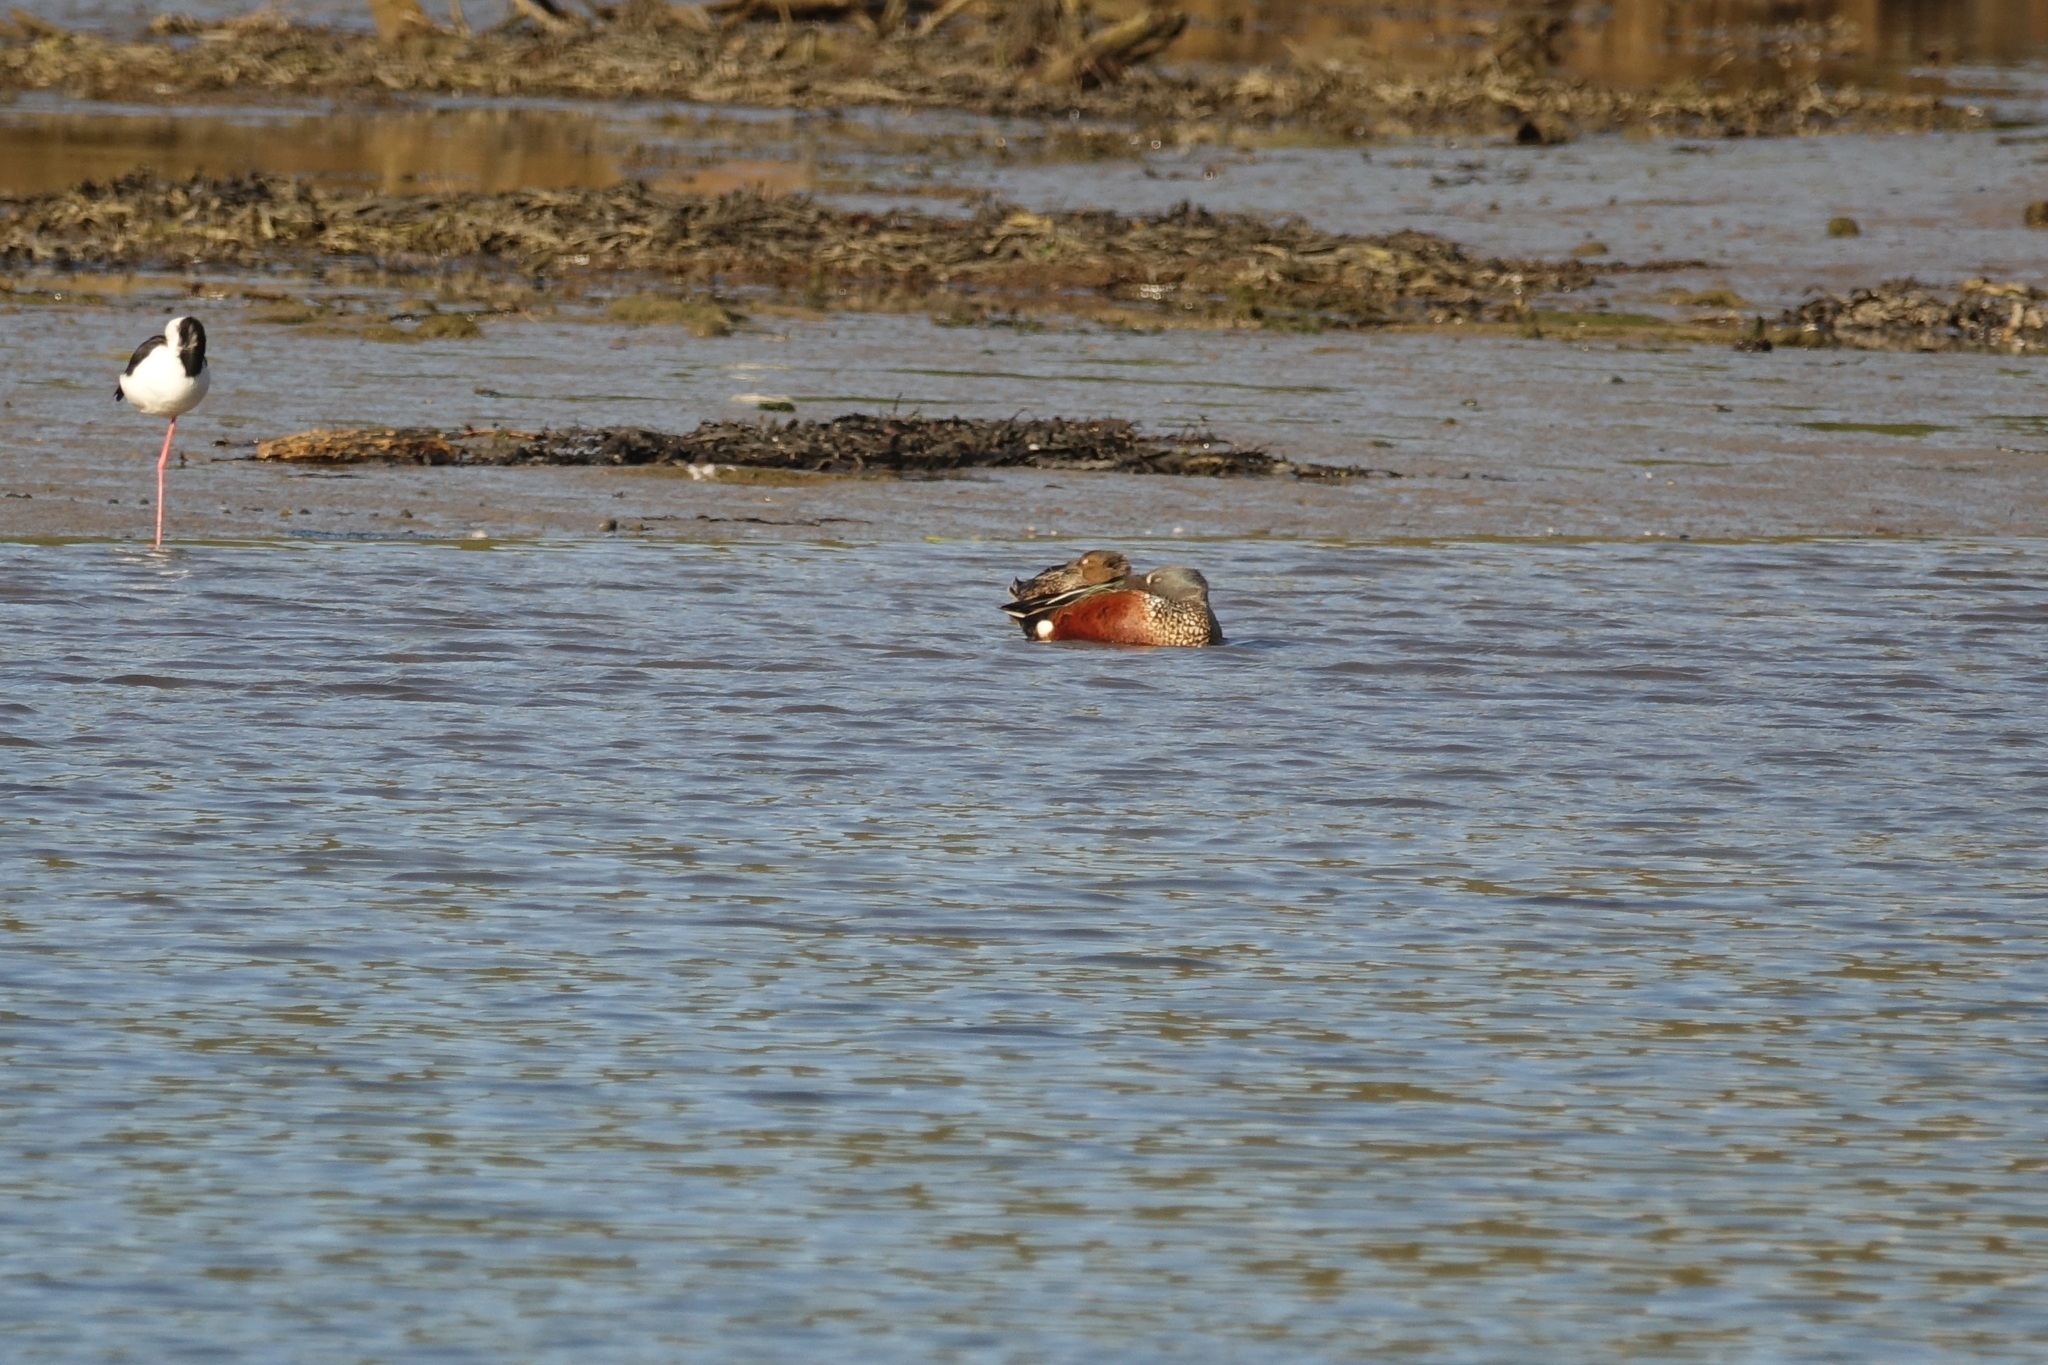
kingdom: Animalia
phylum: Chordata
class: Aves
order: Anseriformes
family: Anatidae
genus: Spatula
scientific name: Spatula rhynchotis
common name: Australian shoveler
